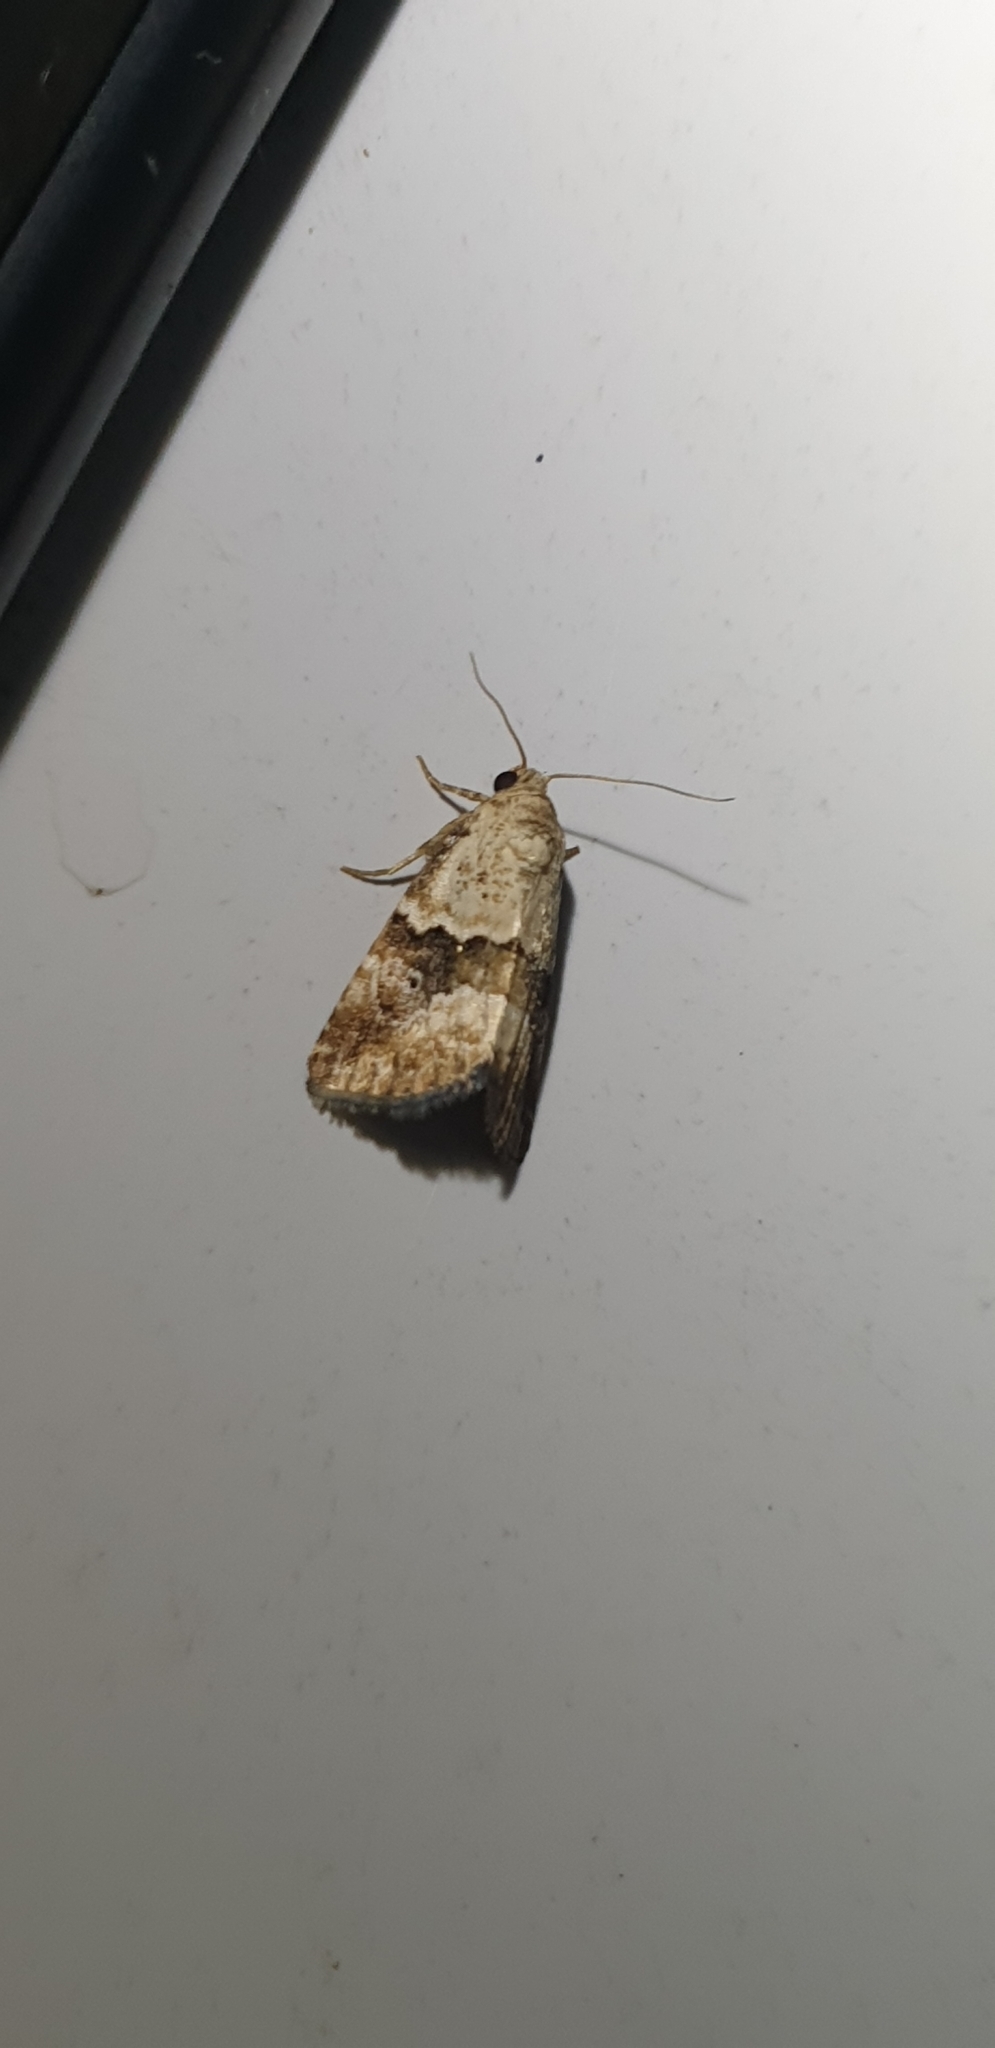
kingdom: Animalia
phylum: Arthropoda
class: Insecta
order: Lepidoptera
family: Noctuidae
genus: Maliattha
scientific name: Maliattha amorpha
